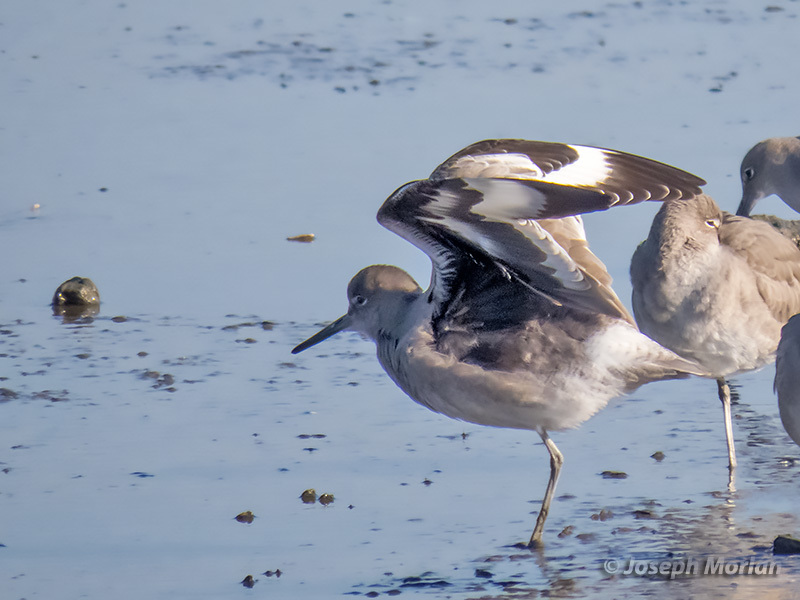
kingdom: Animalia
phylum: Chordata
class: Aves
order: Charadriiformes
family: Scolopacidae
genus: Tringa
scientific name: Tringa semipalmata
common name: Willet
